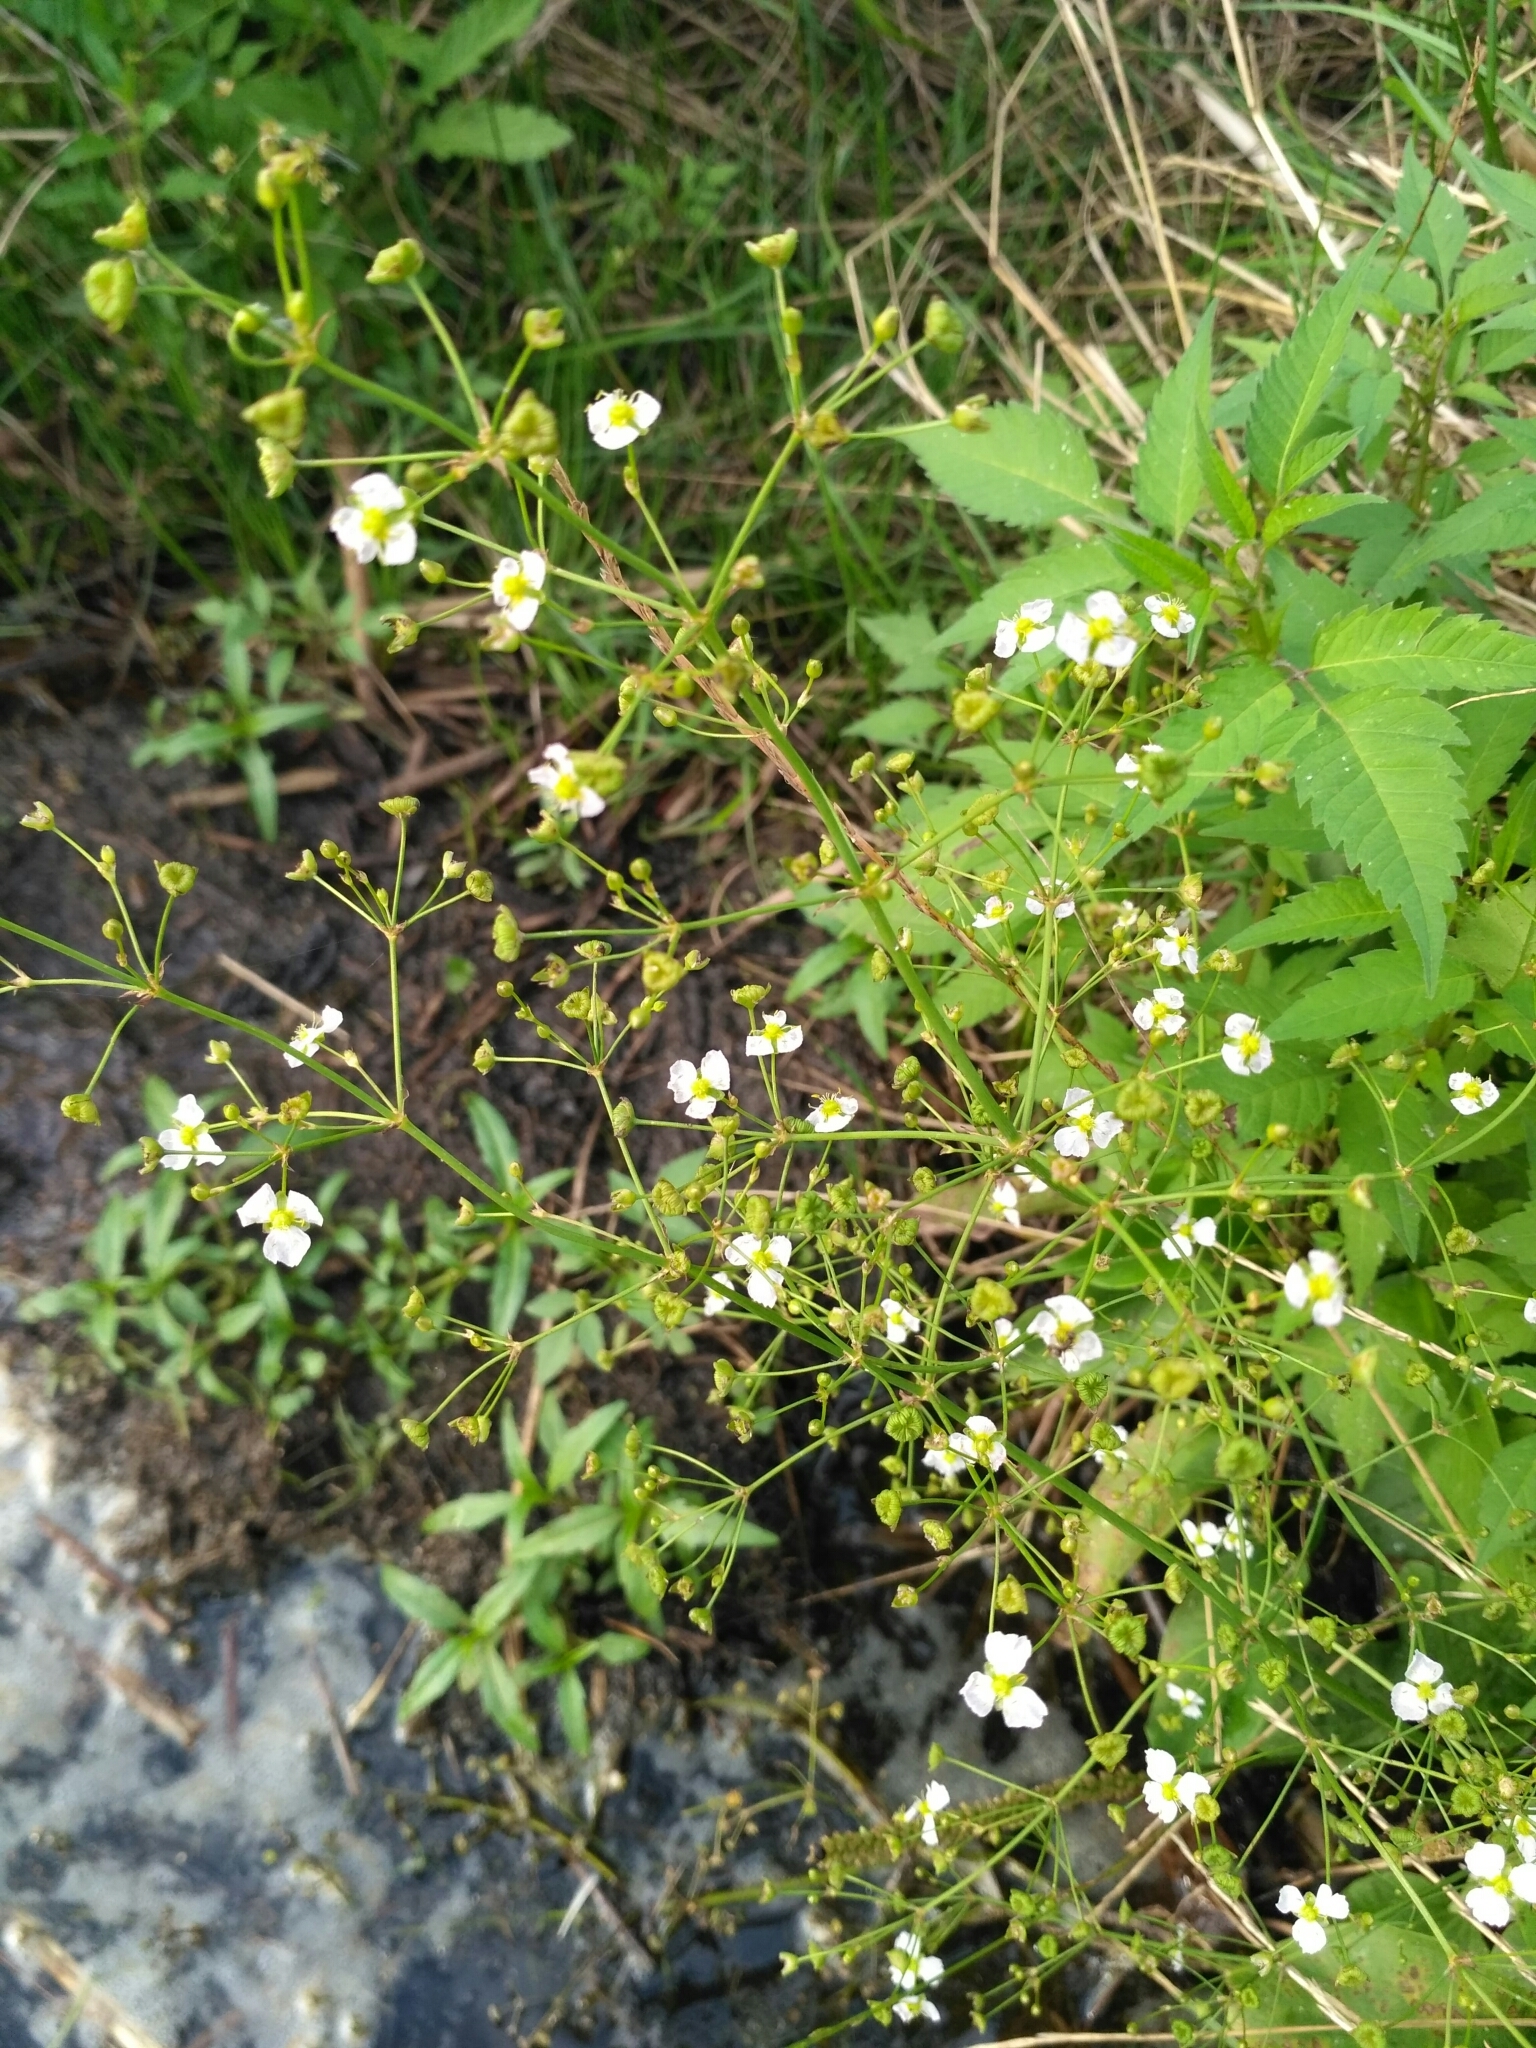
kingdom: Plantae
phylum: Tracheophyta
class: Liliopsida
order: Alismatales
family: Alismataceae
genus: Alisma
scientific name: Alisma lanceolatum
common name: Narrow-leaved water-plantain
